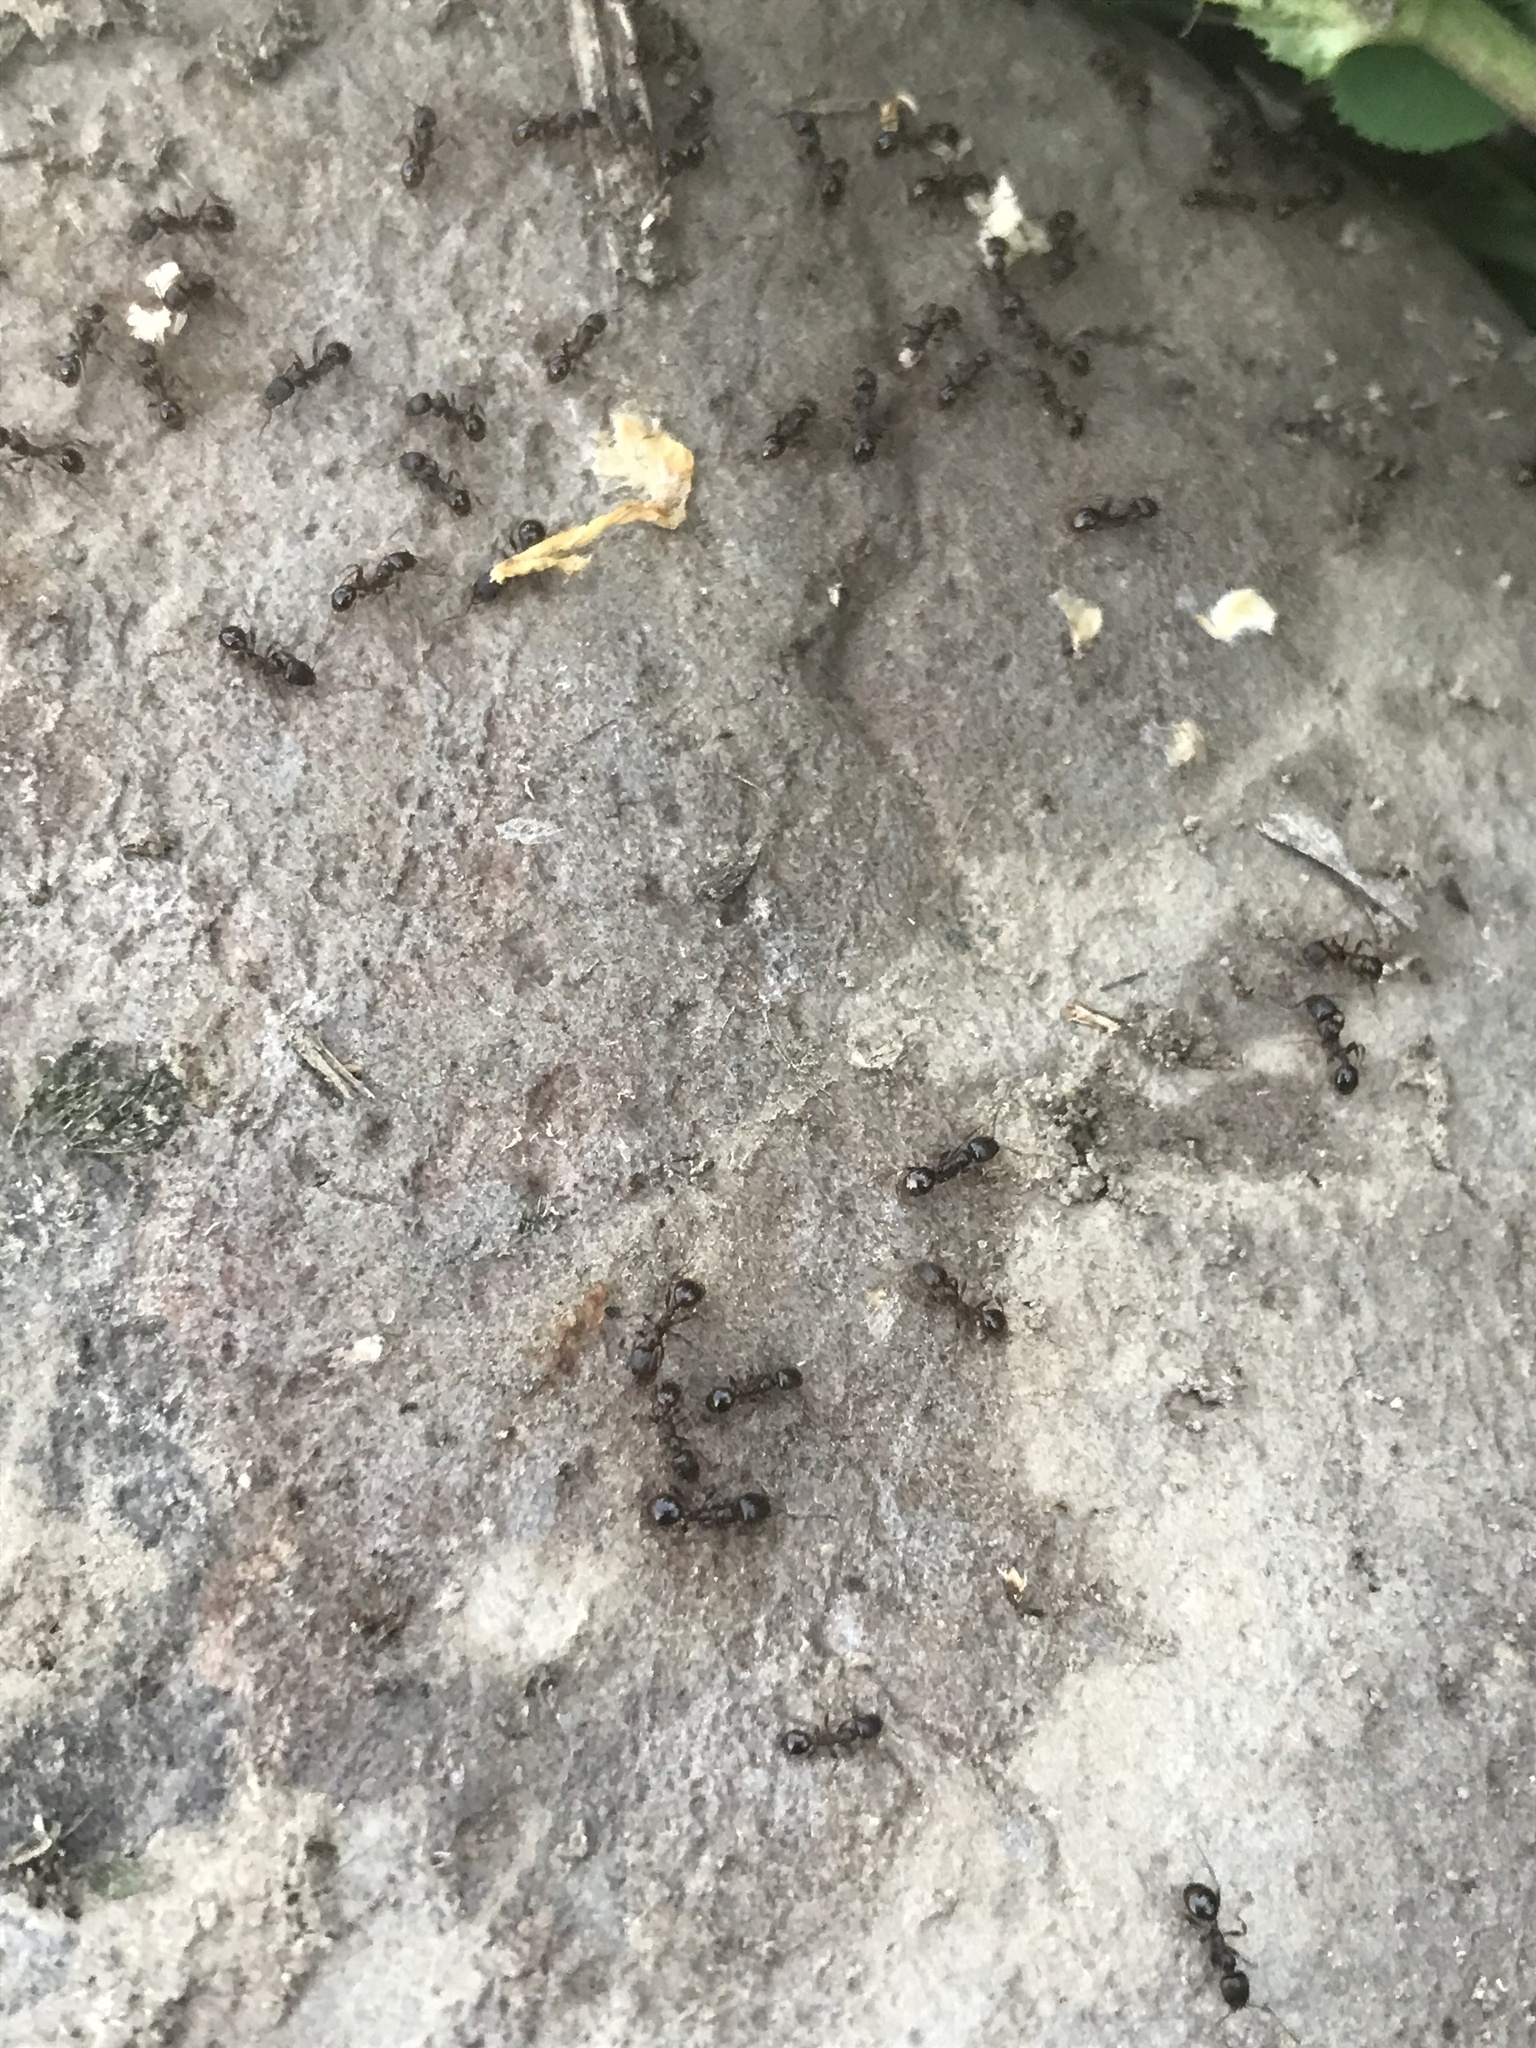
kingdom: Animalia
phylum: Arthropoda
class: Insecta
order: Hymenoptera
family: Formicidae
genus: Aphaenogaster
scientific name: Aphaenogaster occidentalis
